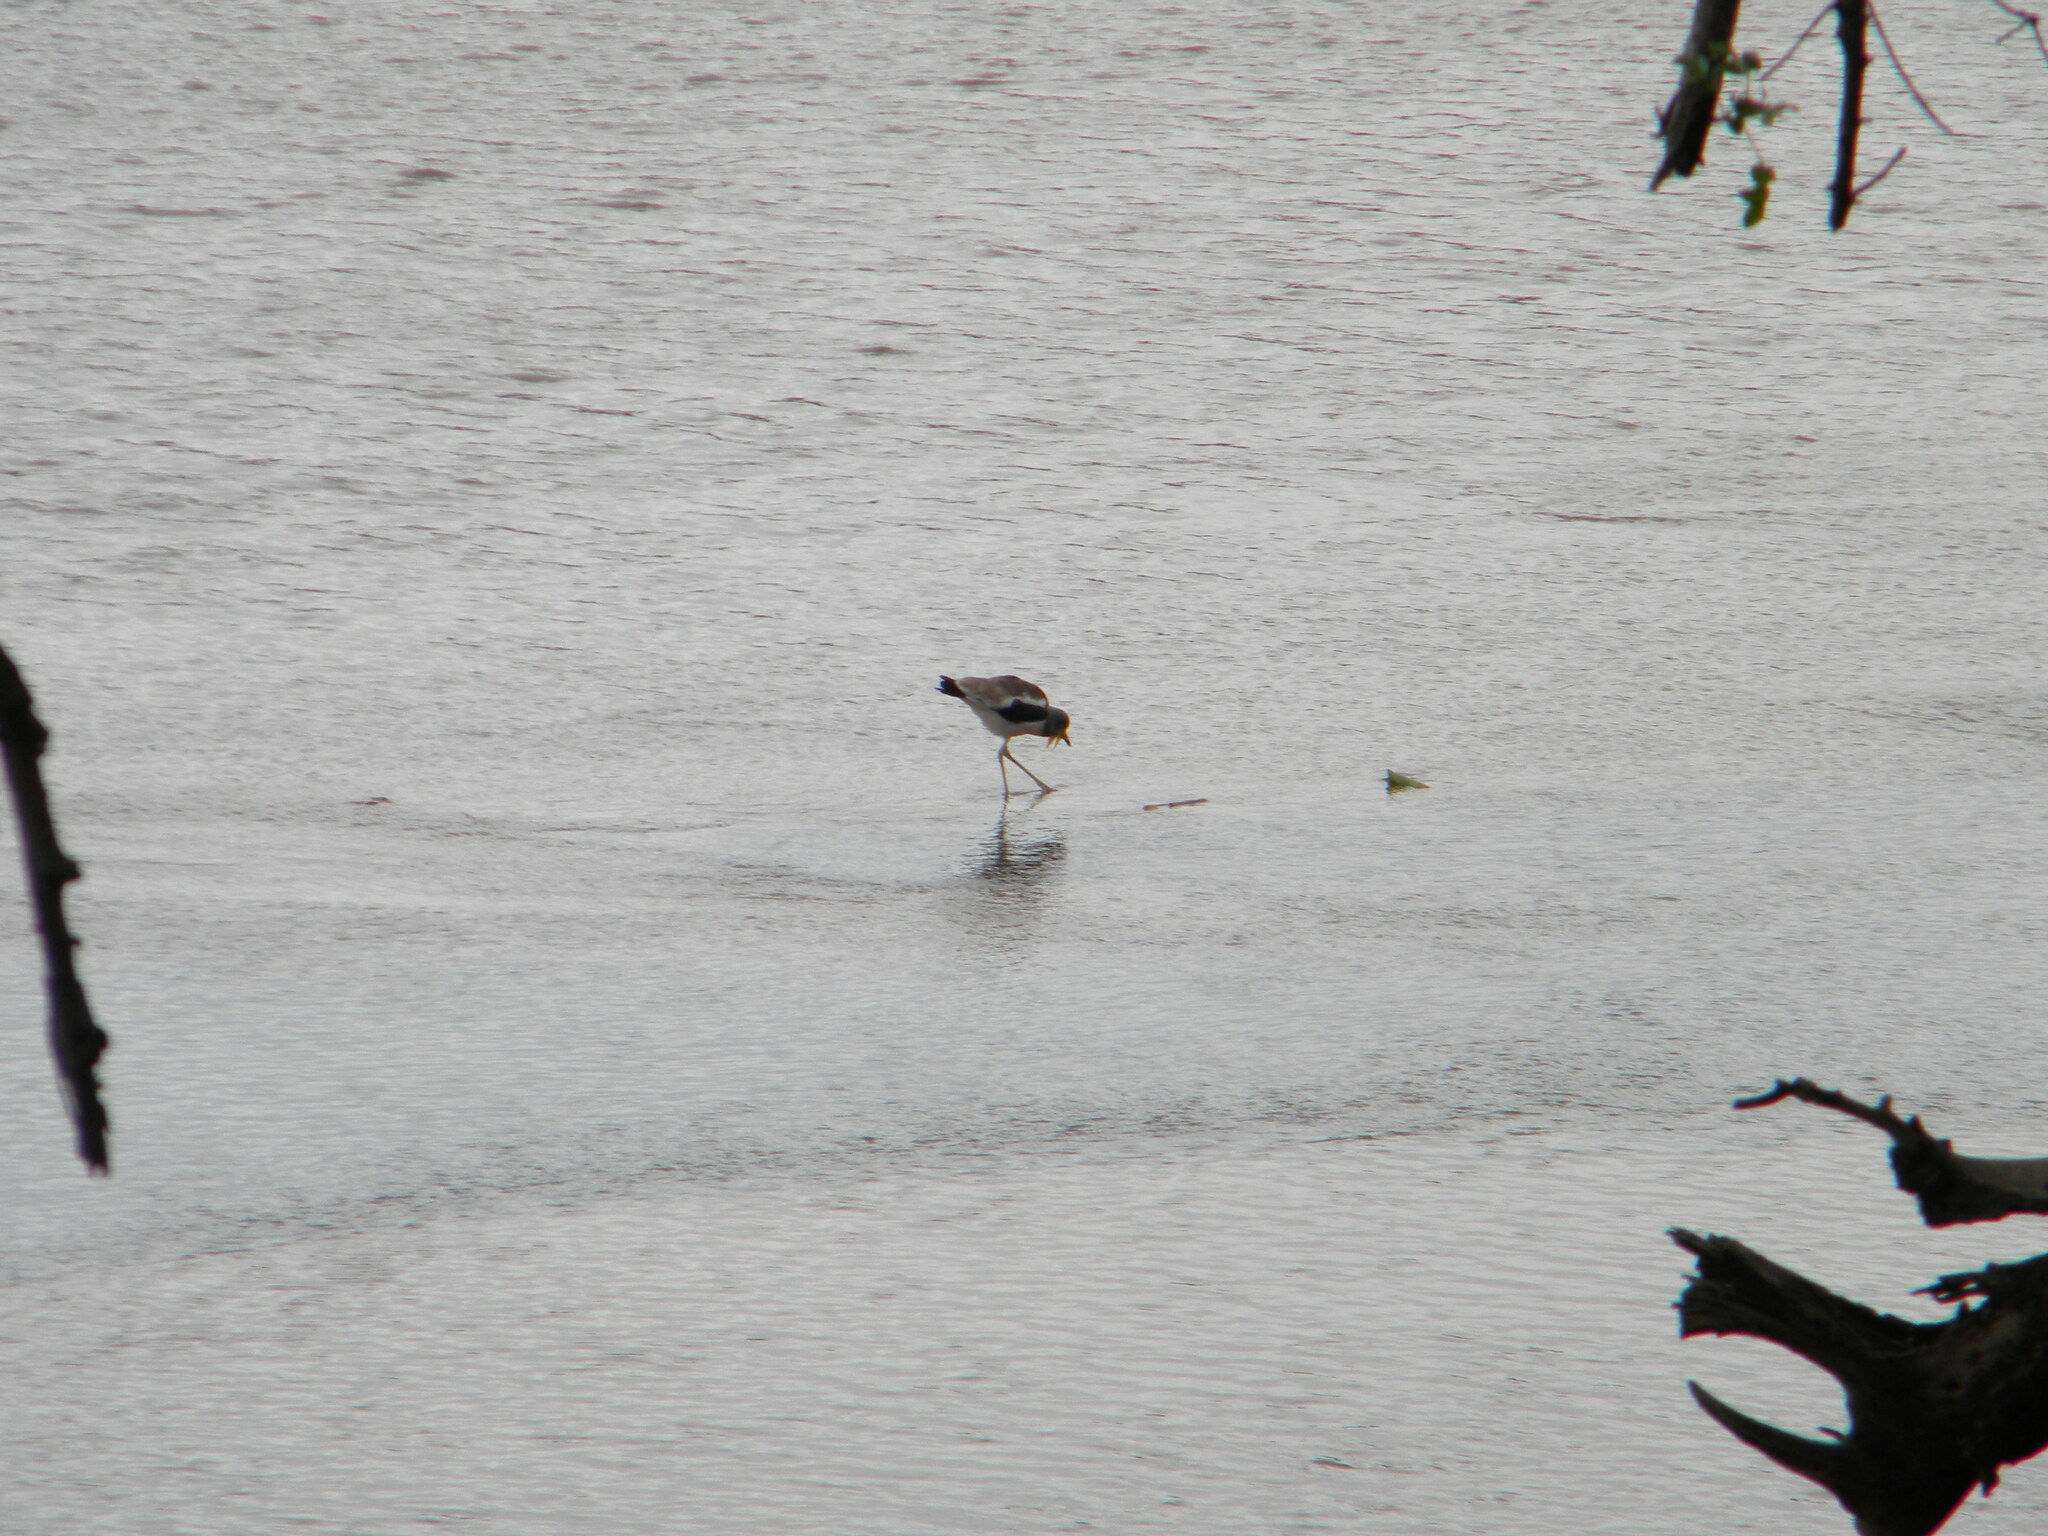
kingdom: Animalia
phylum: Chordata
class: Aves
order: Charadriiformes
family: Charadriidae
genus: Vanellus
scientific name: Vanellus albiceps
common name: White-crowned lapwing
